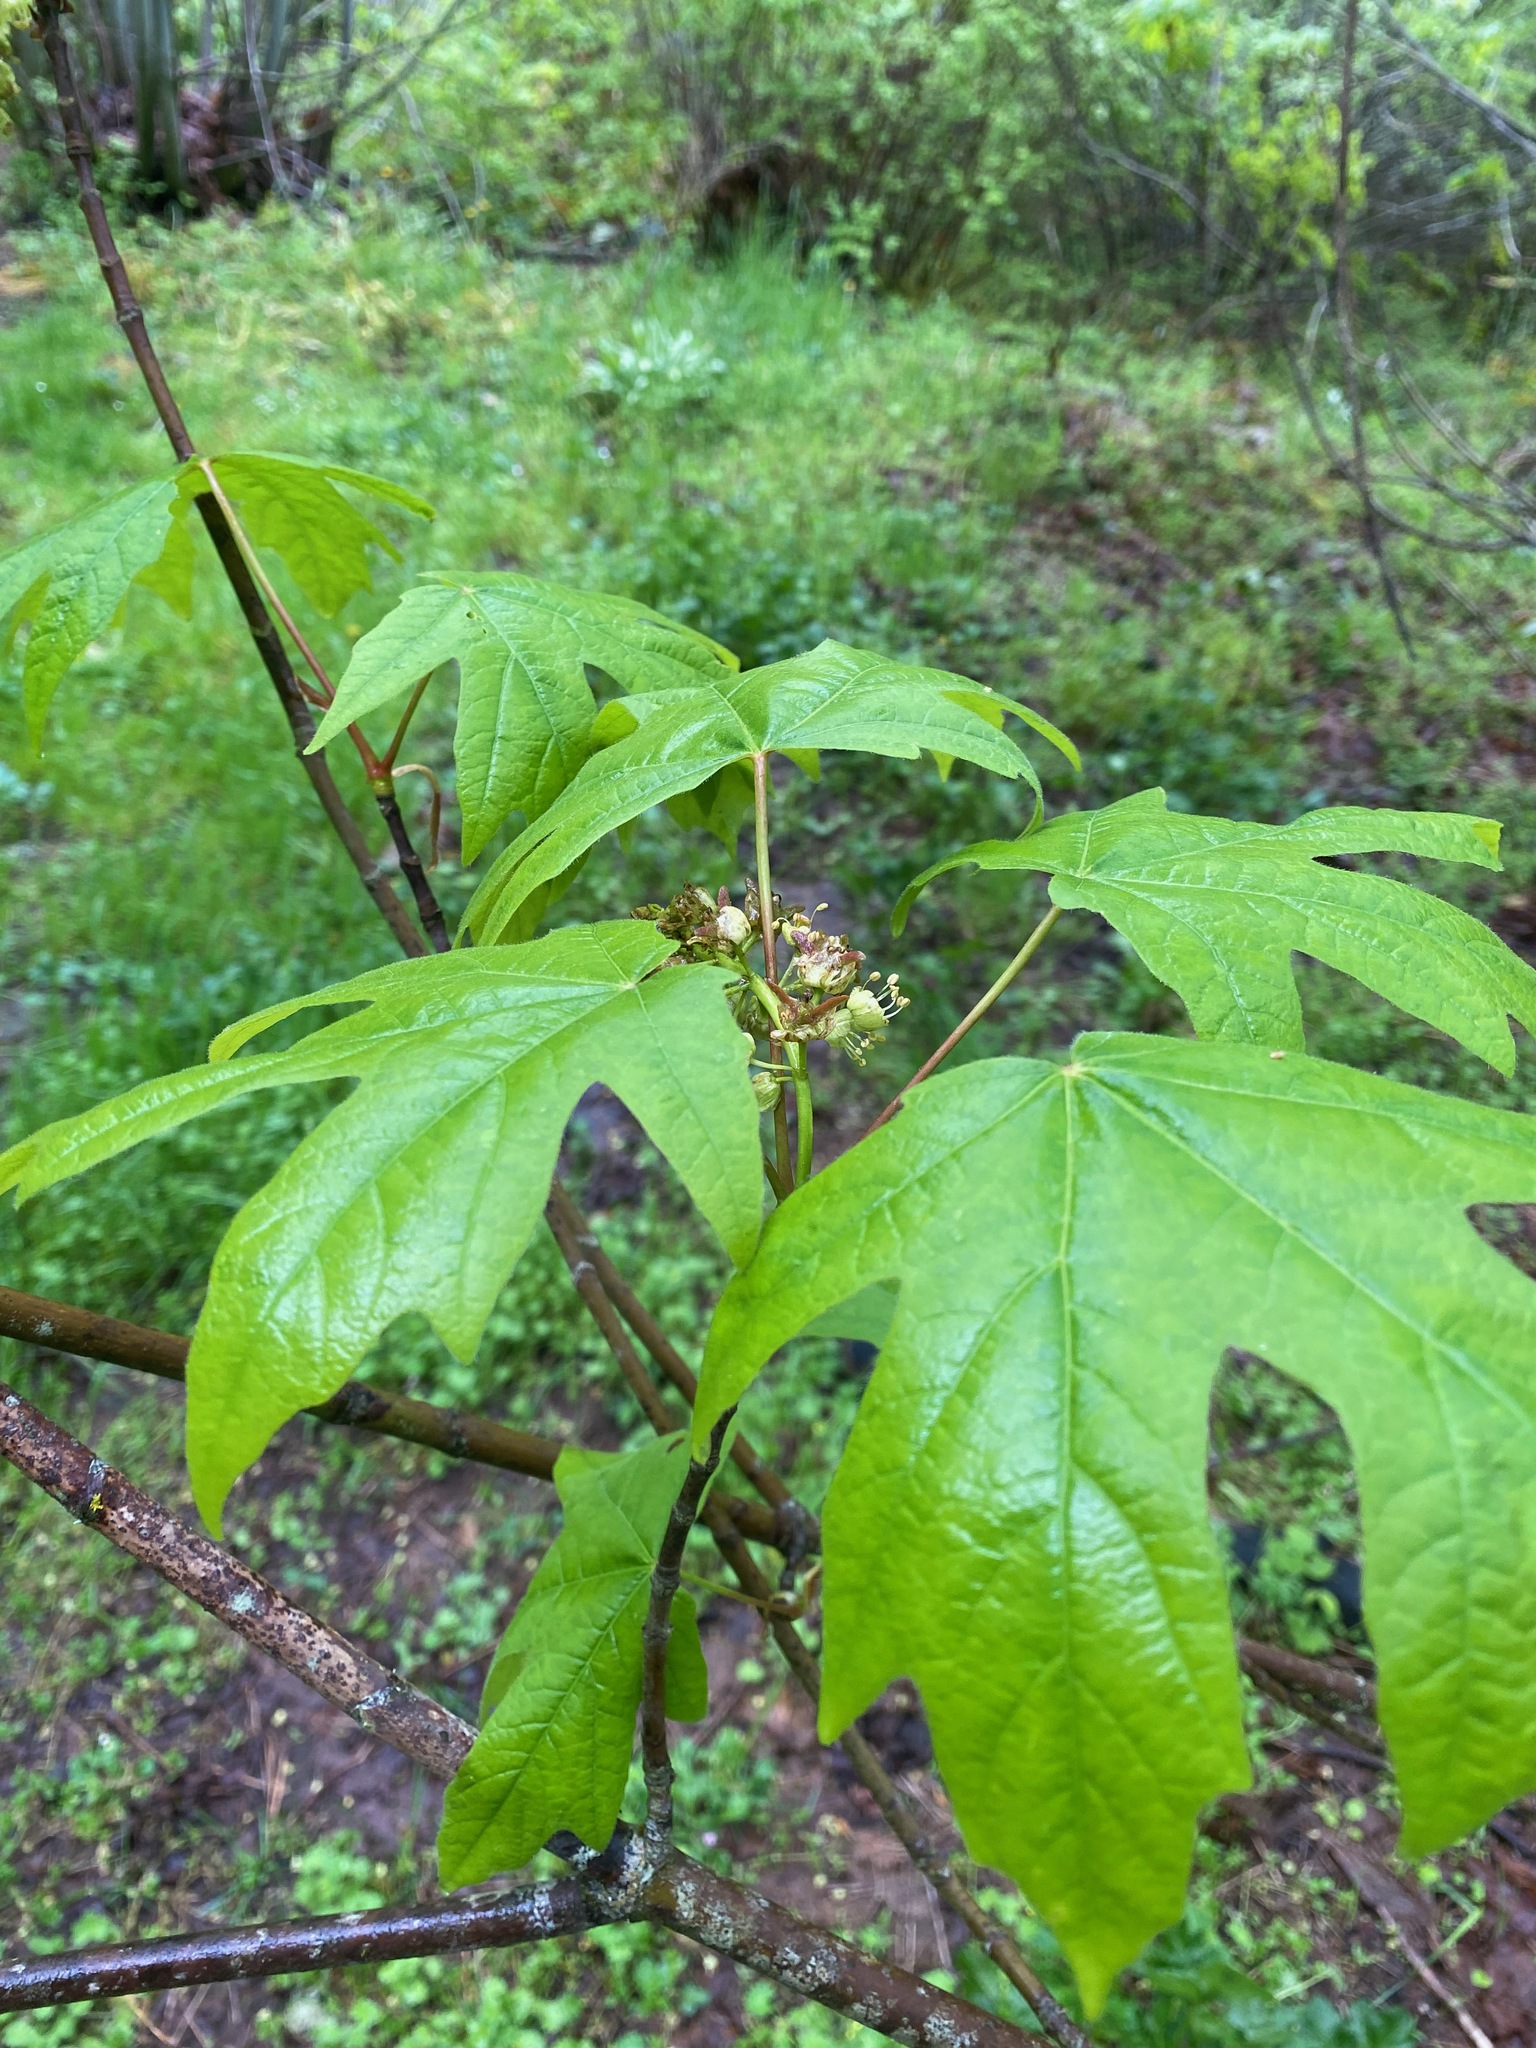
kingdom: Plantae
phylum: Tracheophyta
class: Magnoliopsida
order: Sapindales
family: Sapindaceae
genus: Acer
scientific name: Acer macrophyllum
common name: Oregon maple
